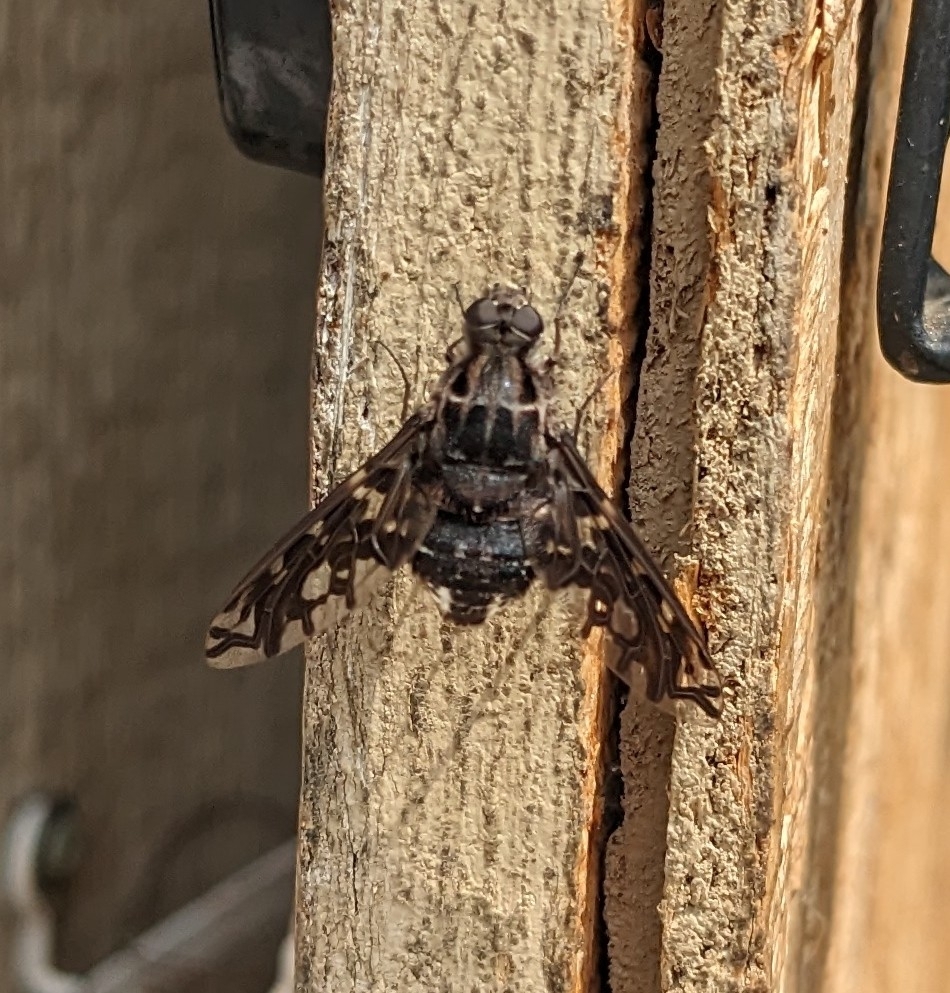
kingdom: Animalia
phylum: Arthropoda
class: Insecta
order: Diptera
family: Bombyliidae
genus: Xenox
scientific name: Xenox tigrinus
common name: Tiger bee fly
